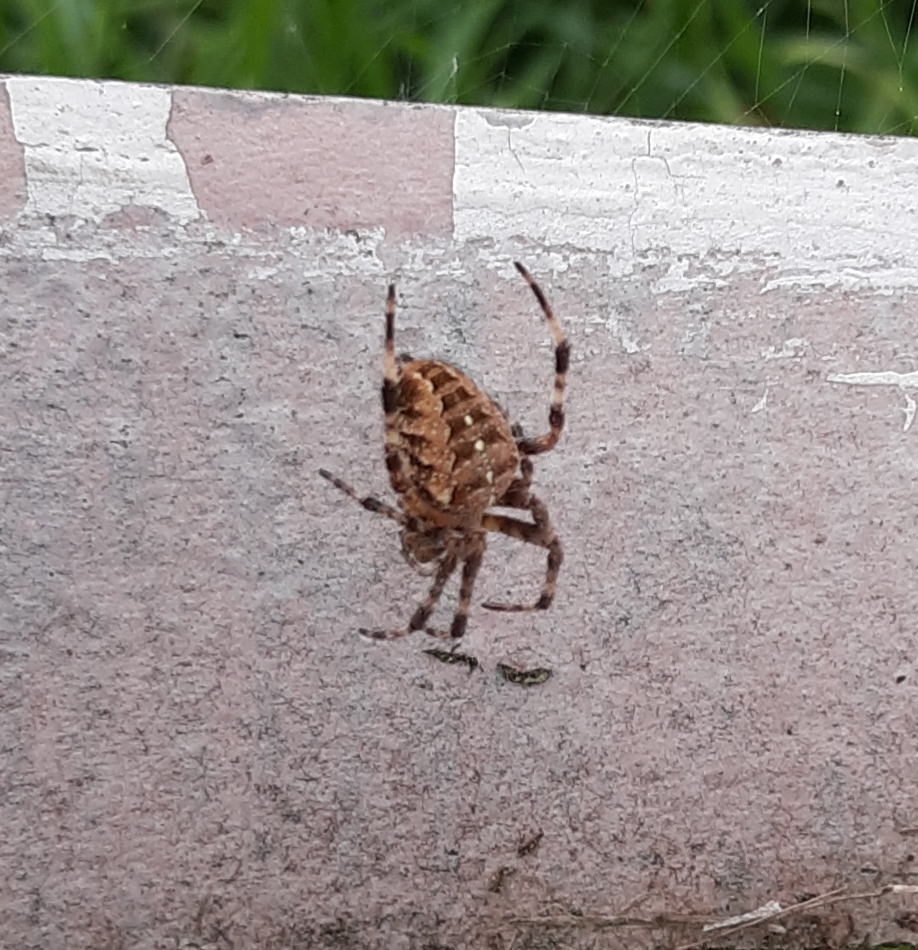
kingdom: Animalia
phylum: Arthropoda
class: Arachnida
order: Araneae
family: Araneidae
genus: Araneus
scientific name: Araneus diadematus
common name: Cross orbweaver
